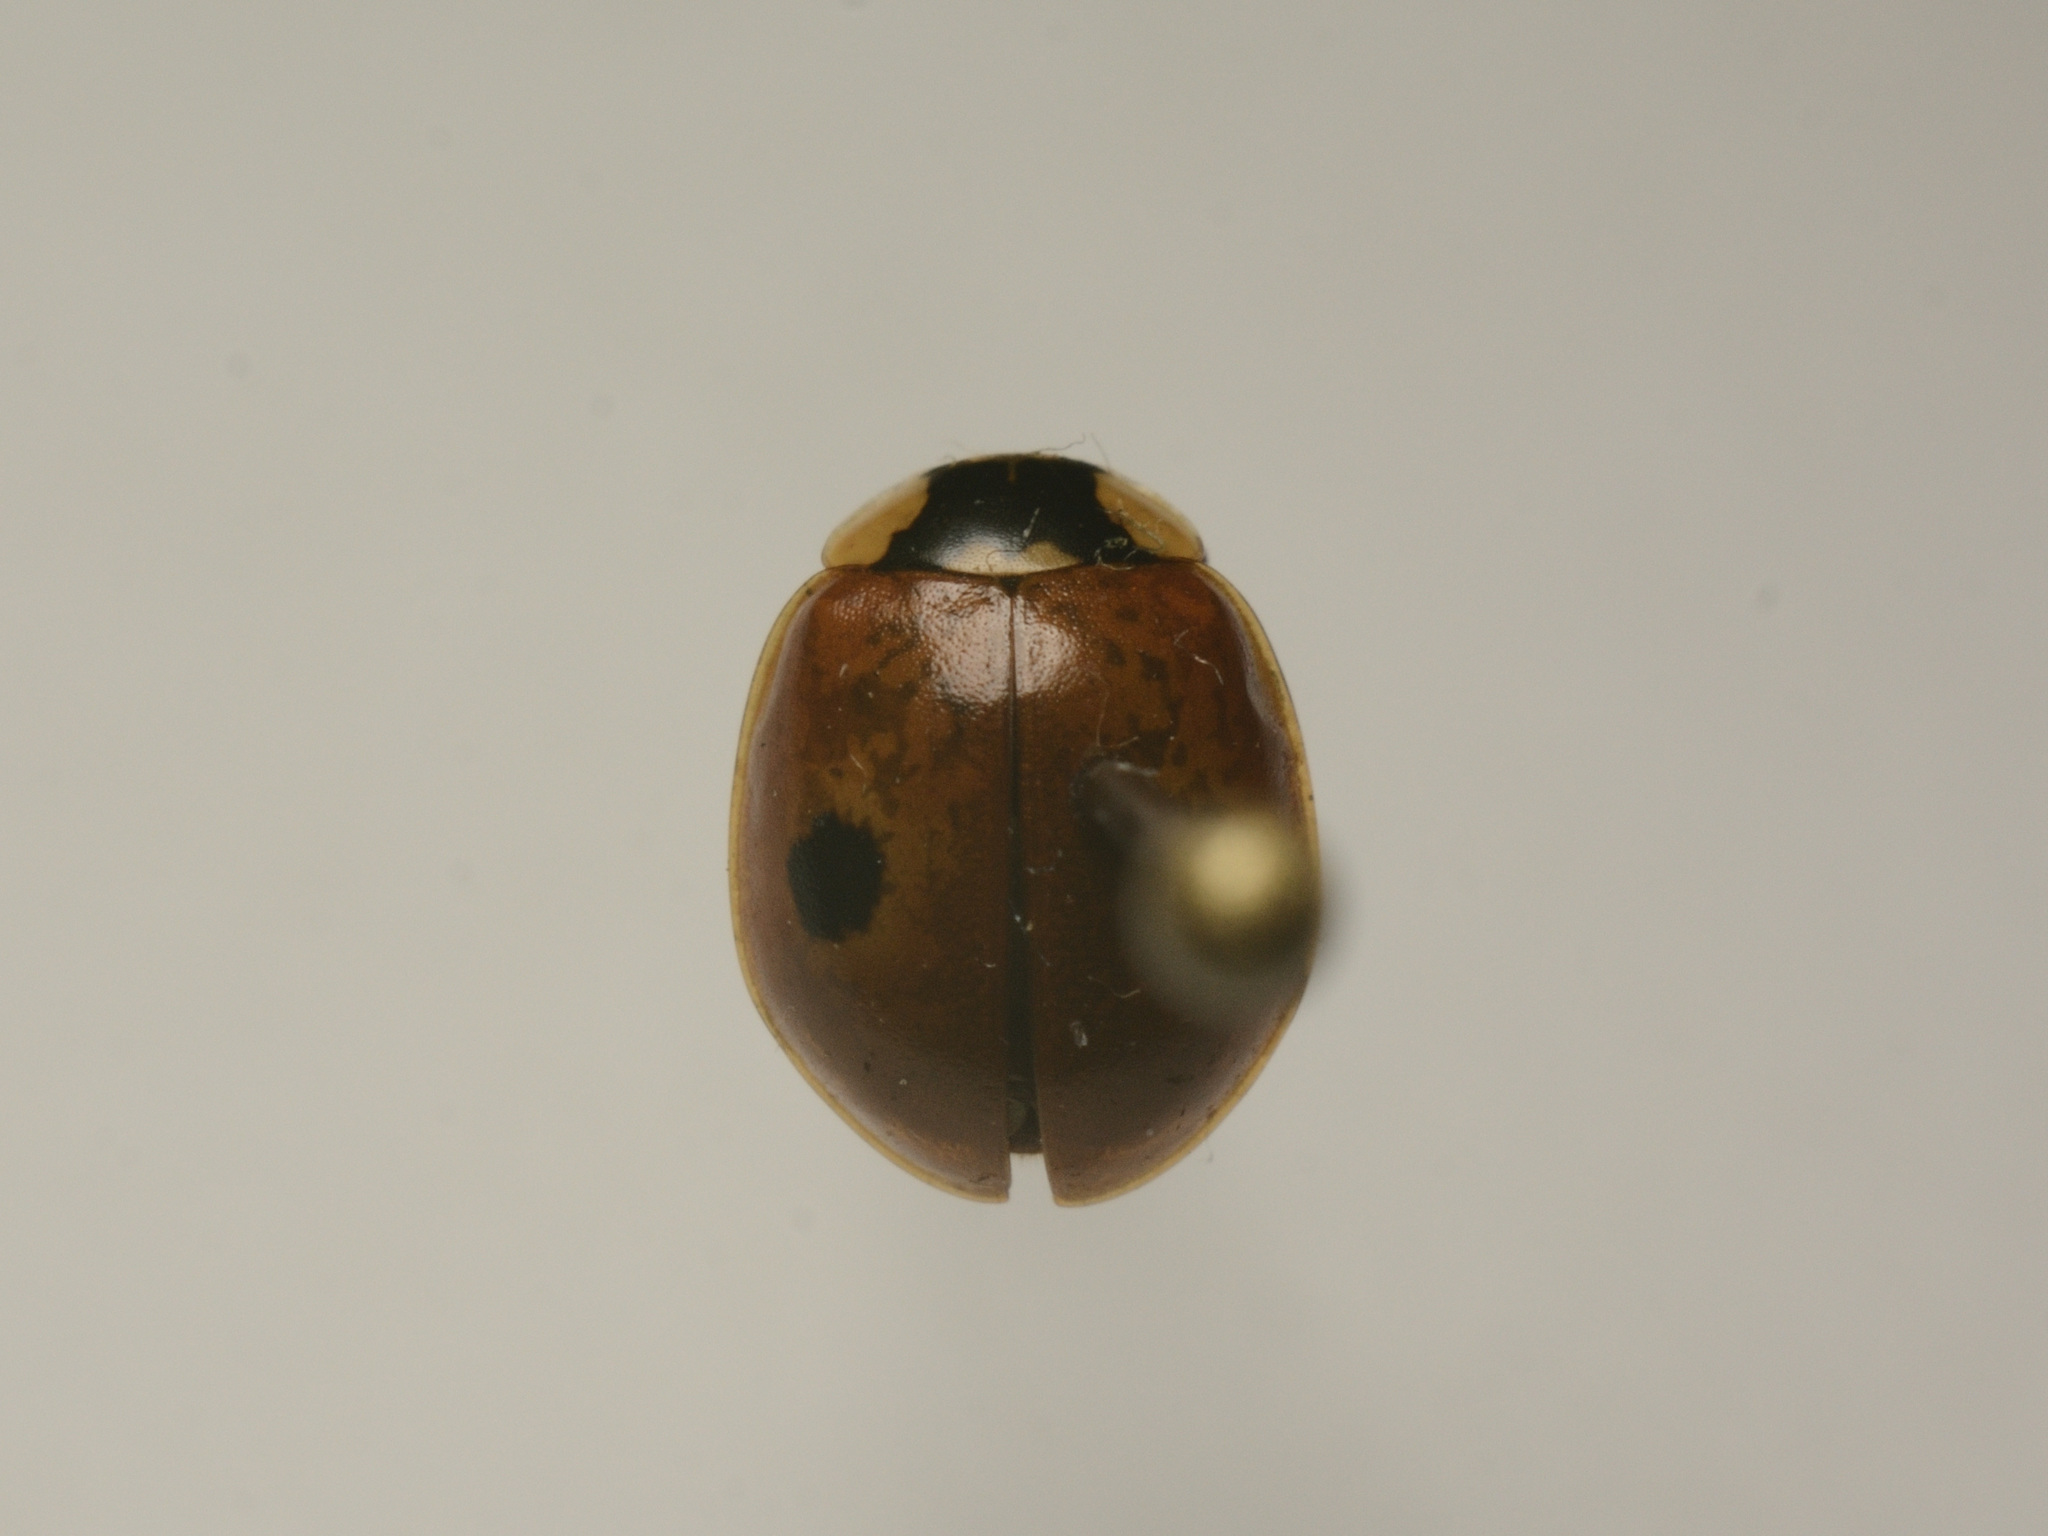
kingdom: Animalia
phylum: Arthropoda
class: Insecta
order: Coleoptera
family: Coccinellidae
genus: Adalia
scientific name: Adalia bipunctata
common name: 2-spot ladybird
